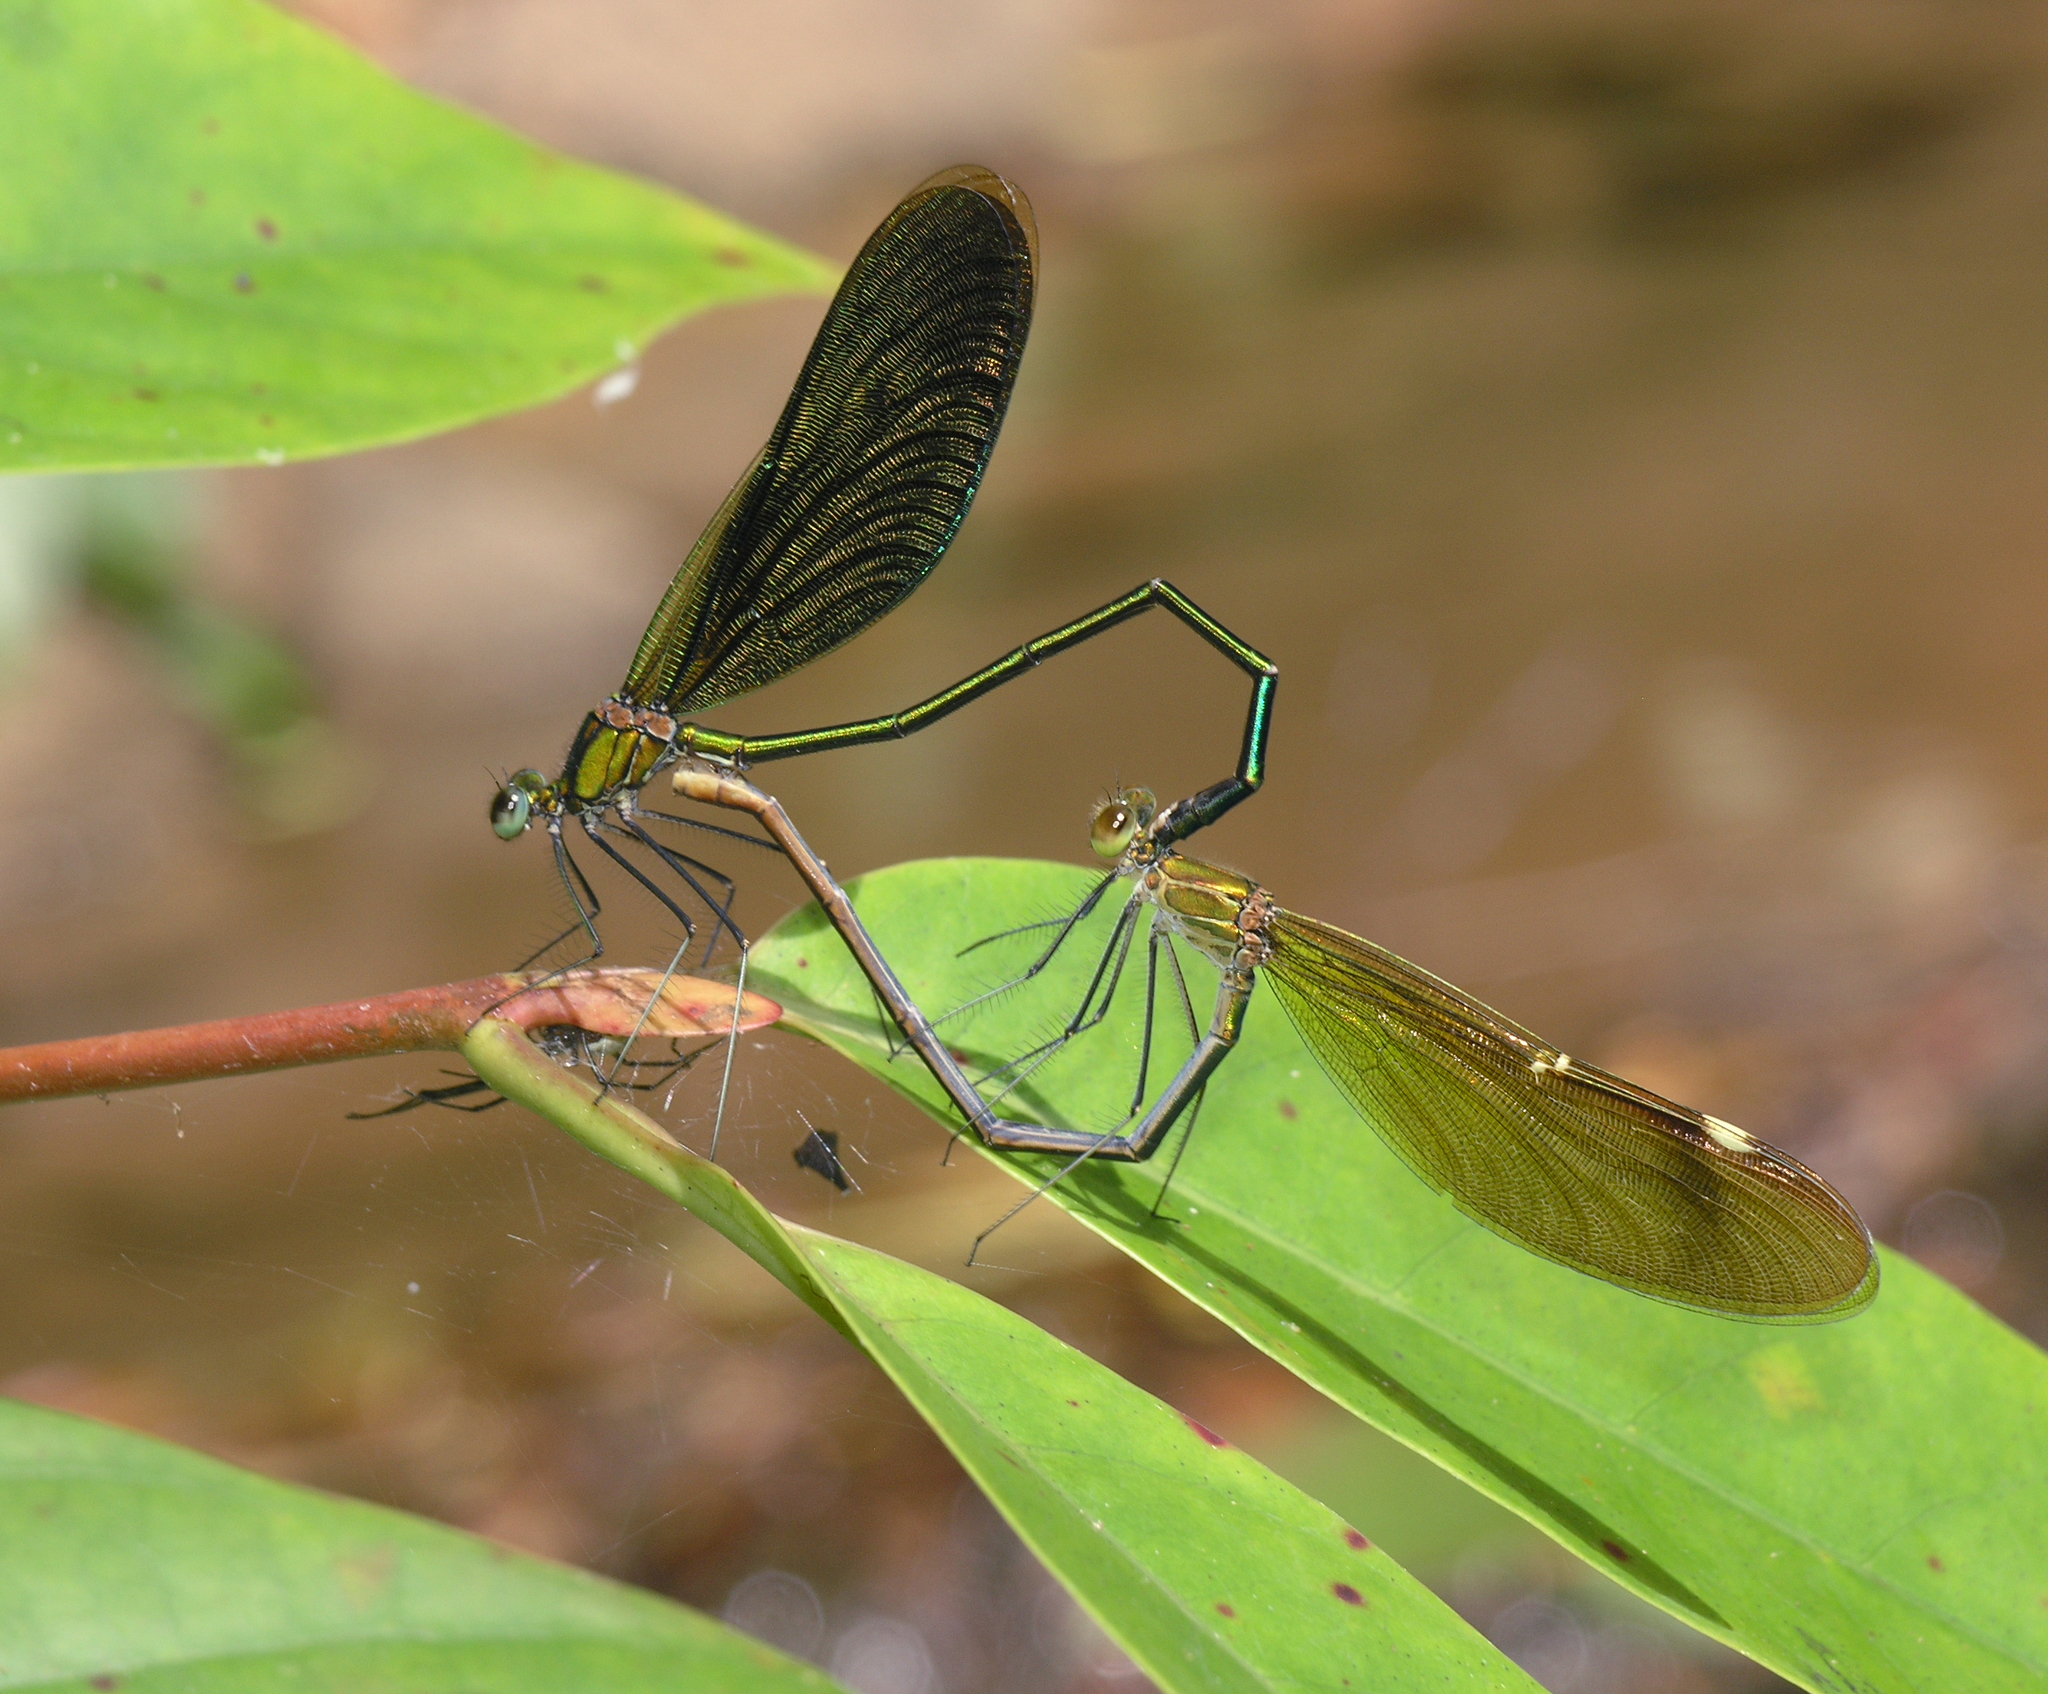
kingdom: Animalia
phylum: Arthropoda
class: Insecta
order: Odonata
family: Calopterygidae
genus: Neurobasis
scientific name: Neurobasis chinensis
